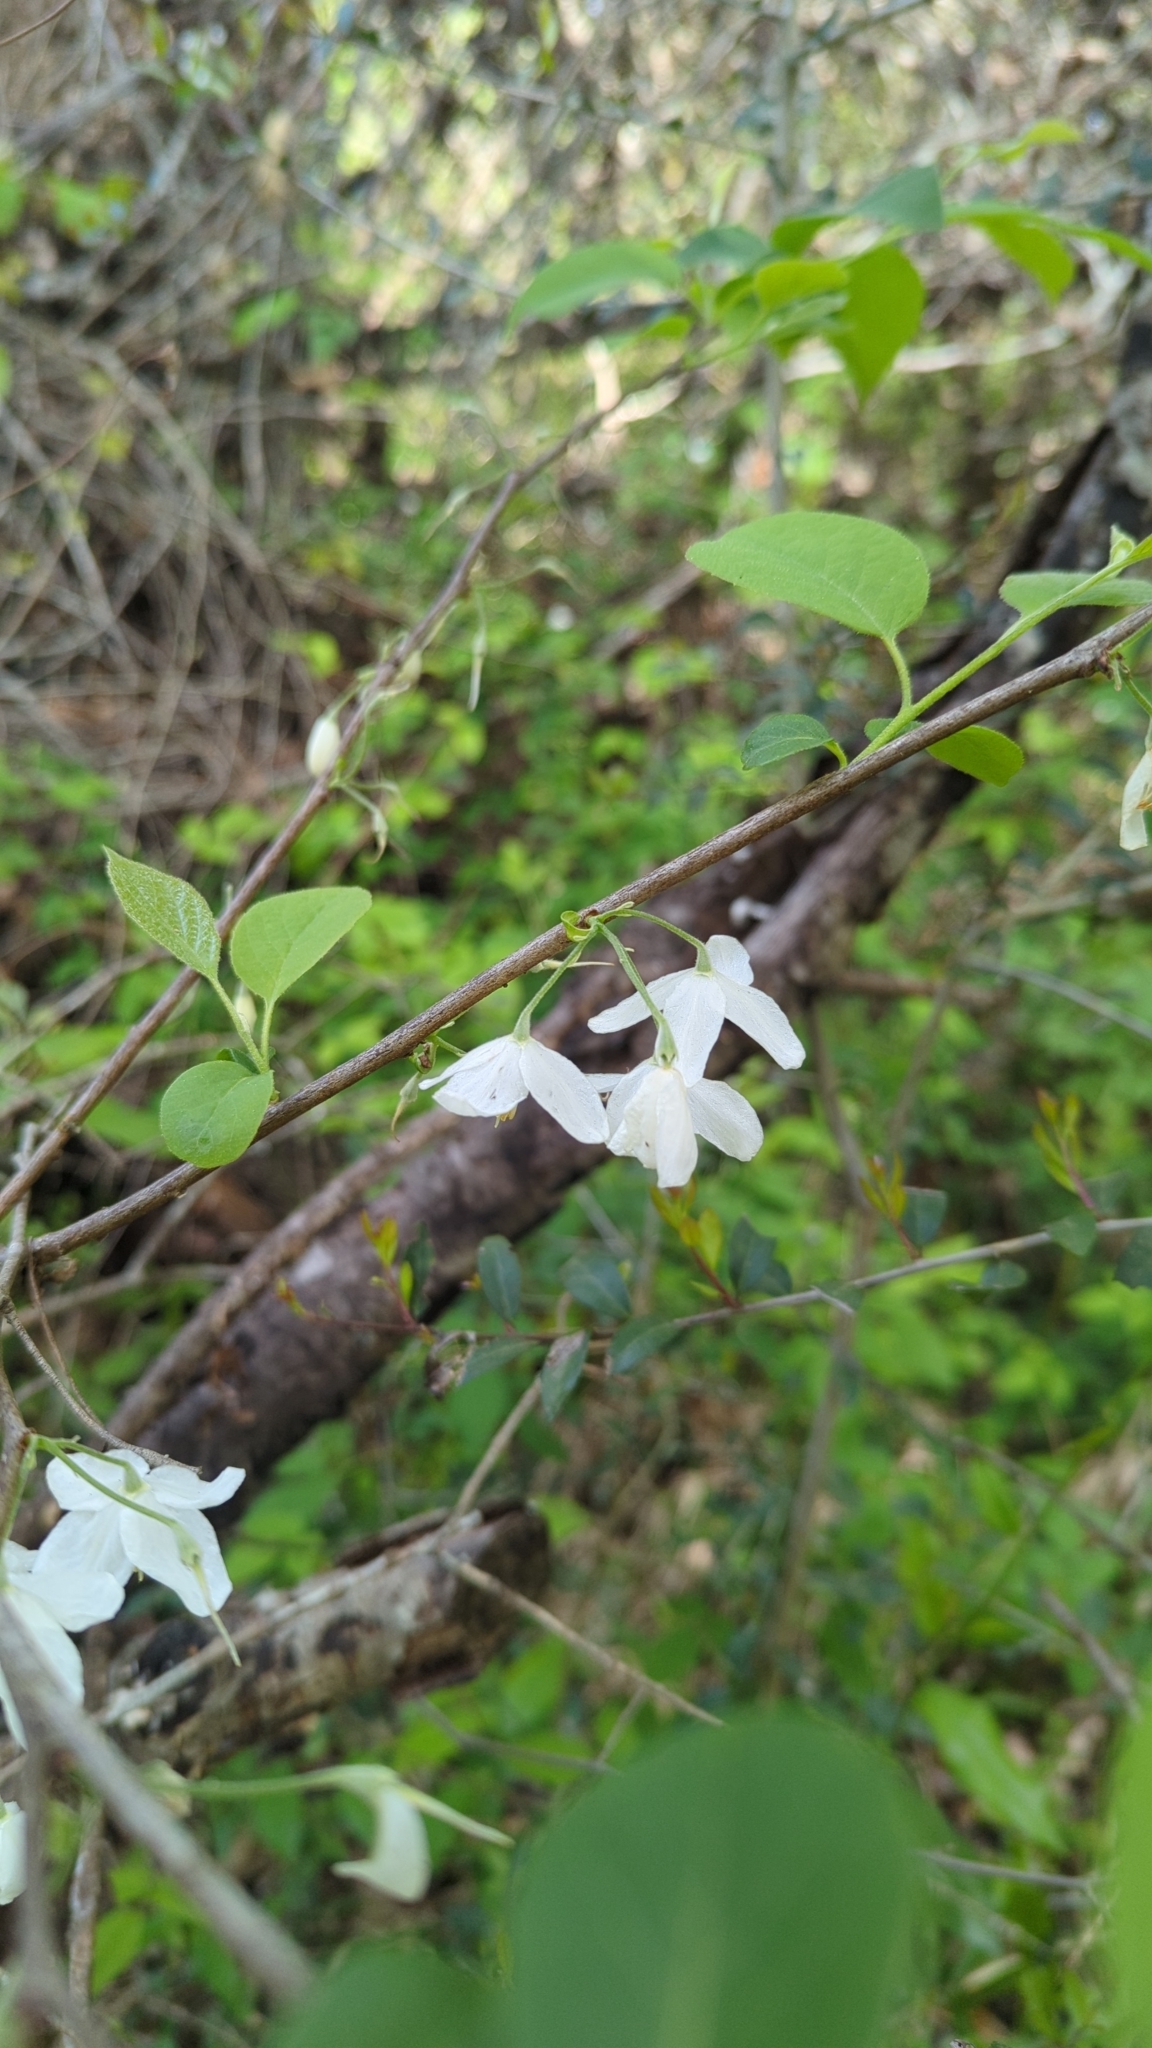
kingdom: Plantae
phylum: Tracheophyta
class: Magnoliopsida
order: Ericales
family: Styracaceae
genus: Halesia
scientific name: Halesia diptera
